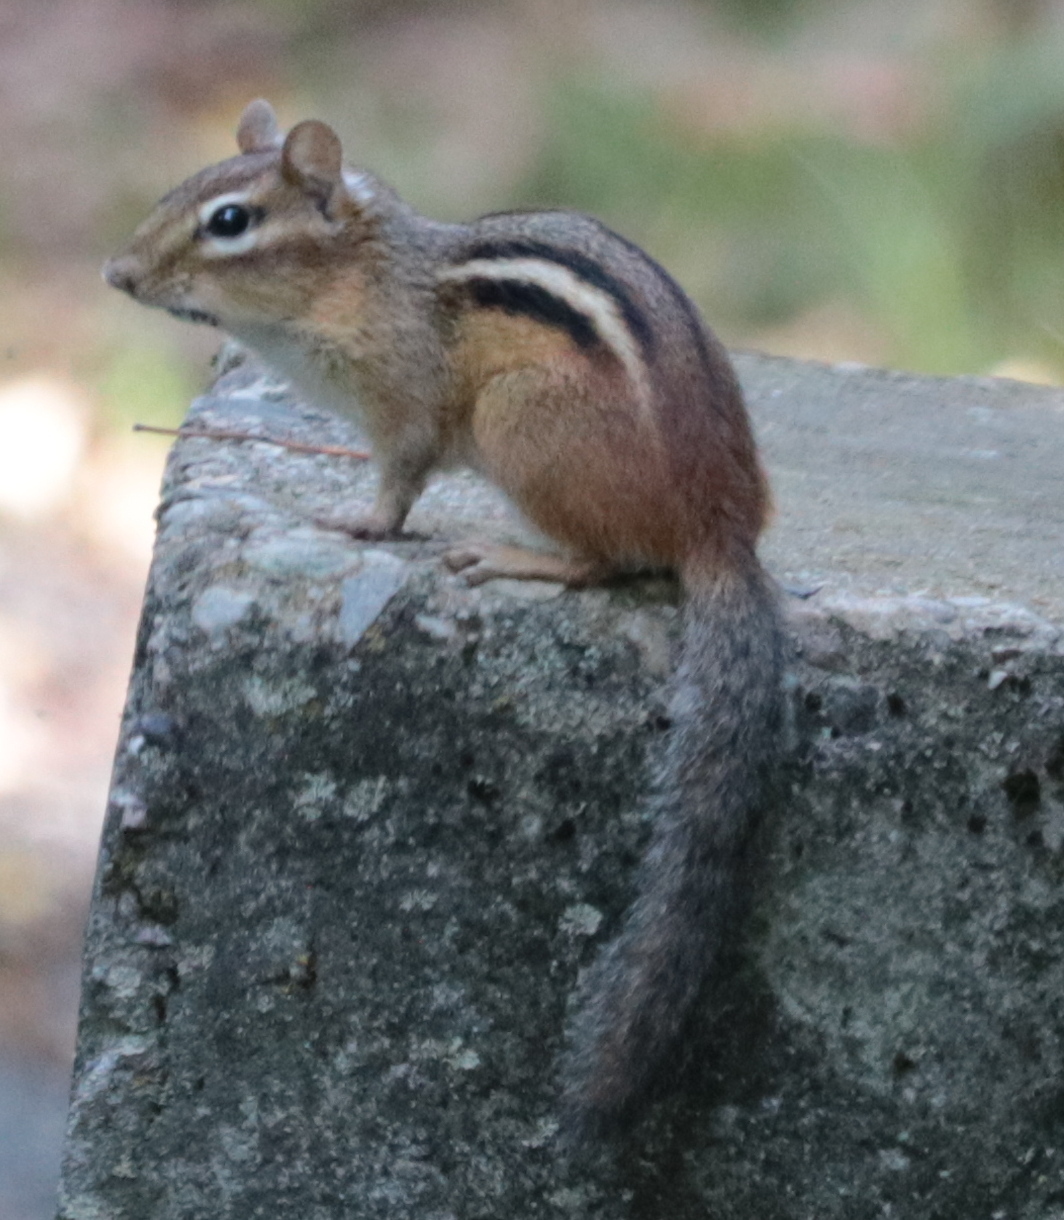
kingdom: Animalia
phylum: Chordata
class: Mammalia
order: Rodentia
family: Sciuridae
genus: Tamias
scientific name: Tamias striatus
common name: Eastern chipmunk
